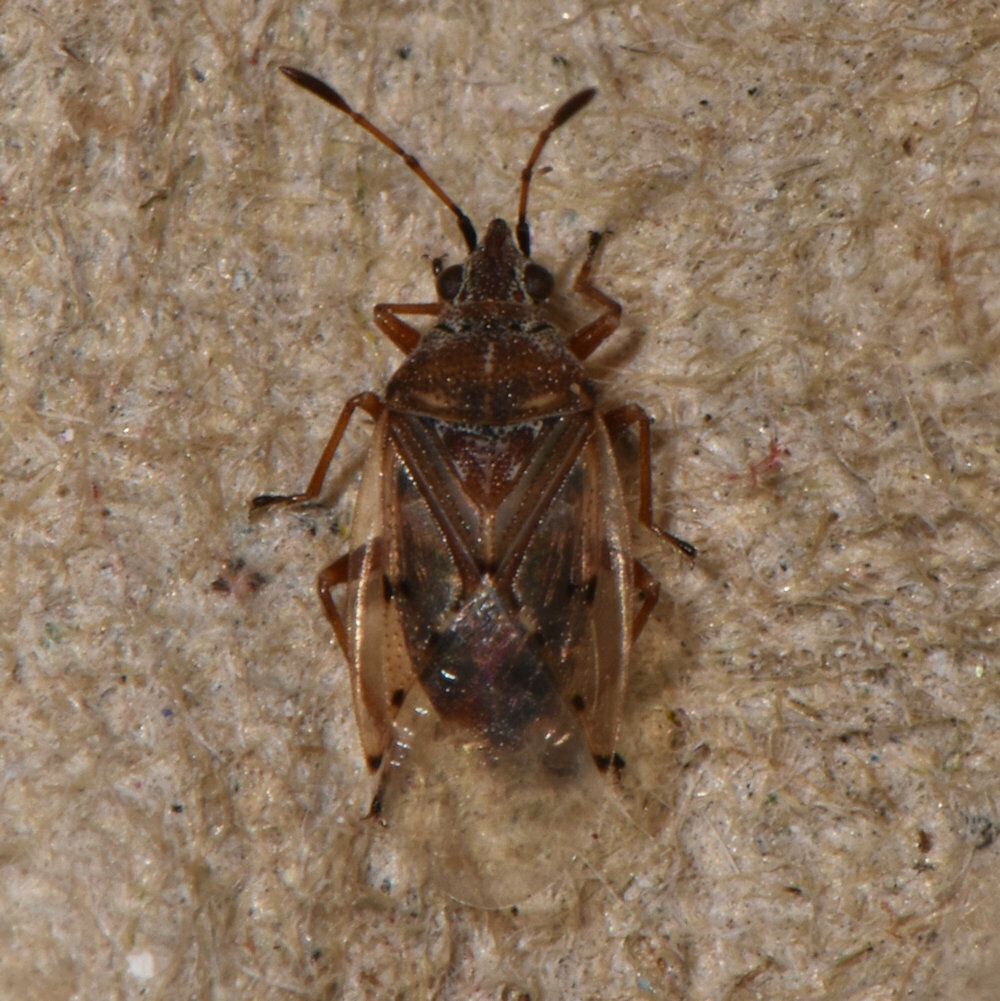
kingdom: Animalia
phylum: Arthropoda
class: Insecta
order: Hemiptera
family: Lygaeidae
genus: Kleidocerys
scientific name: Kleidocerys resedae
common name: Birch catkin bug
